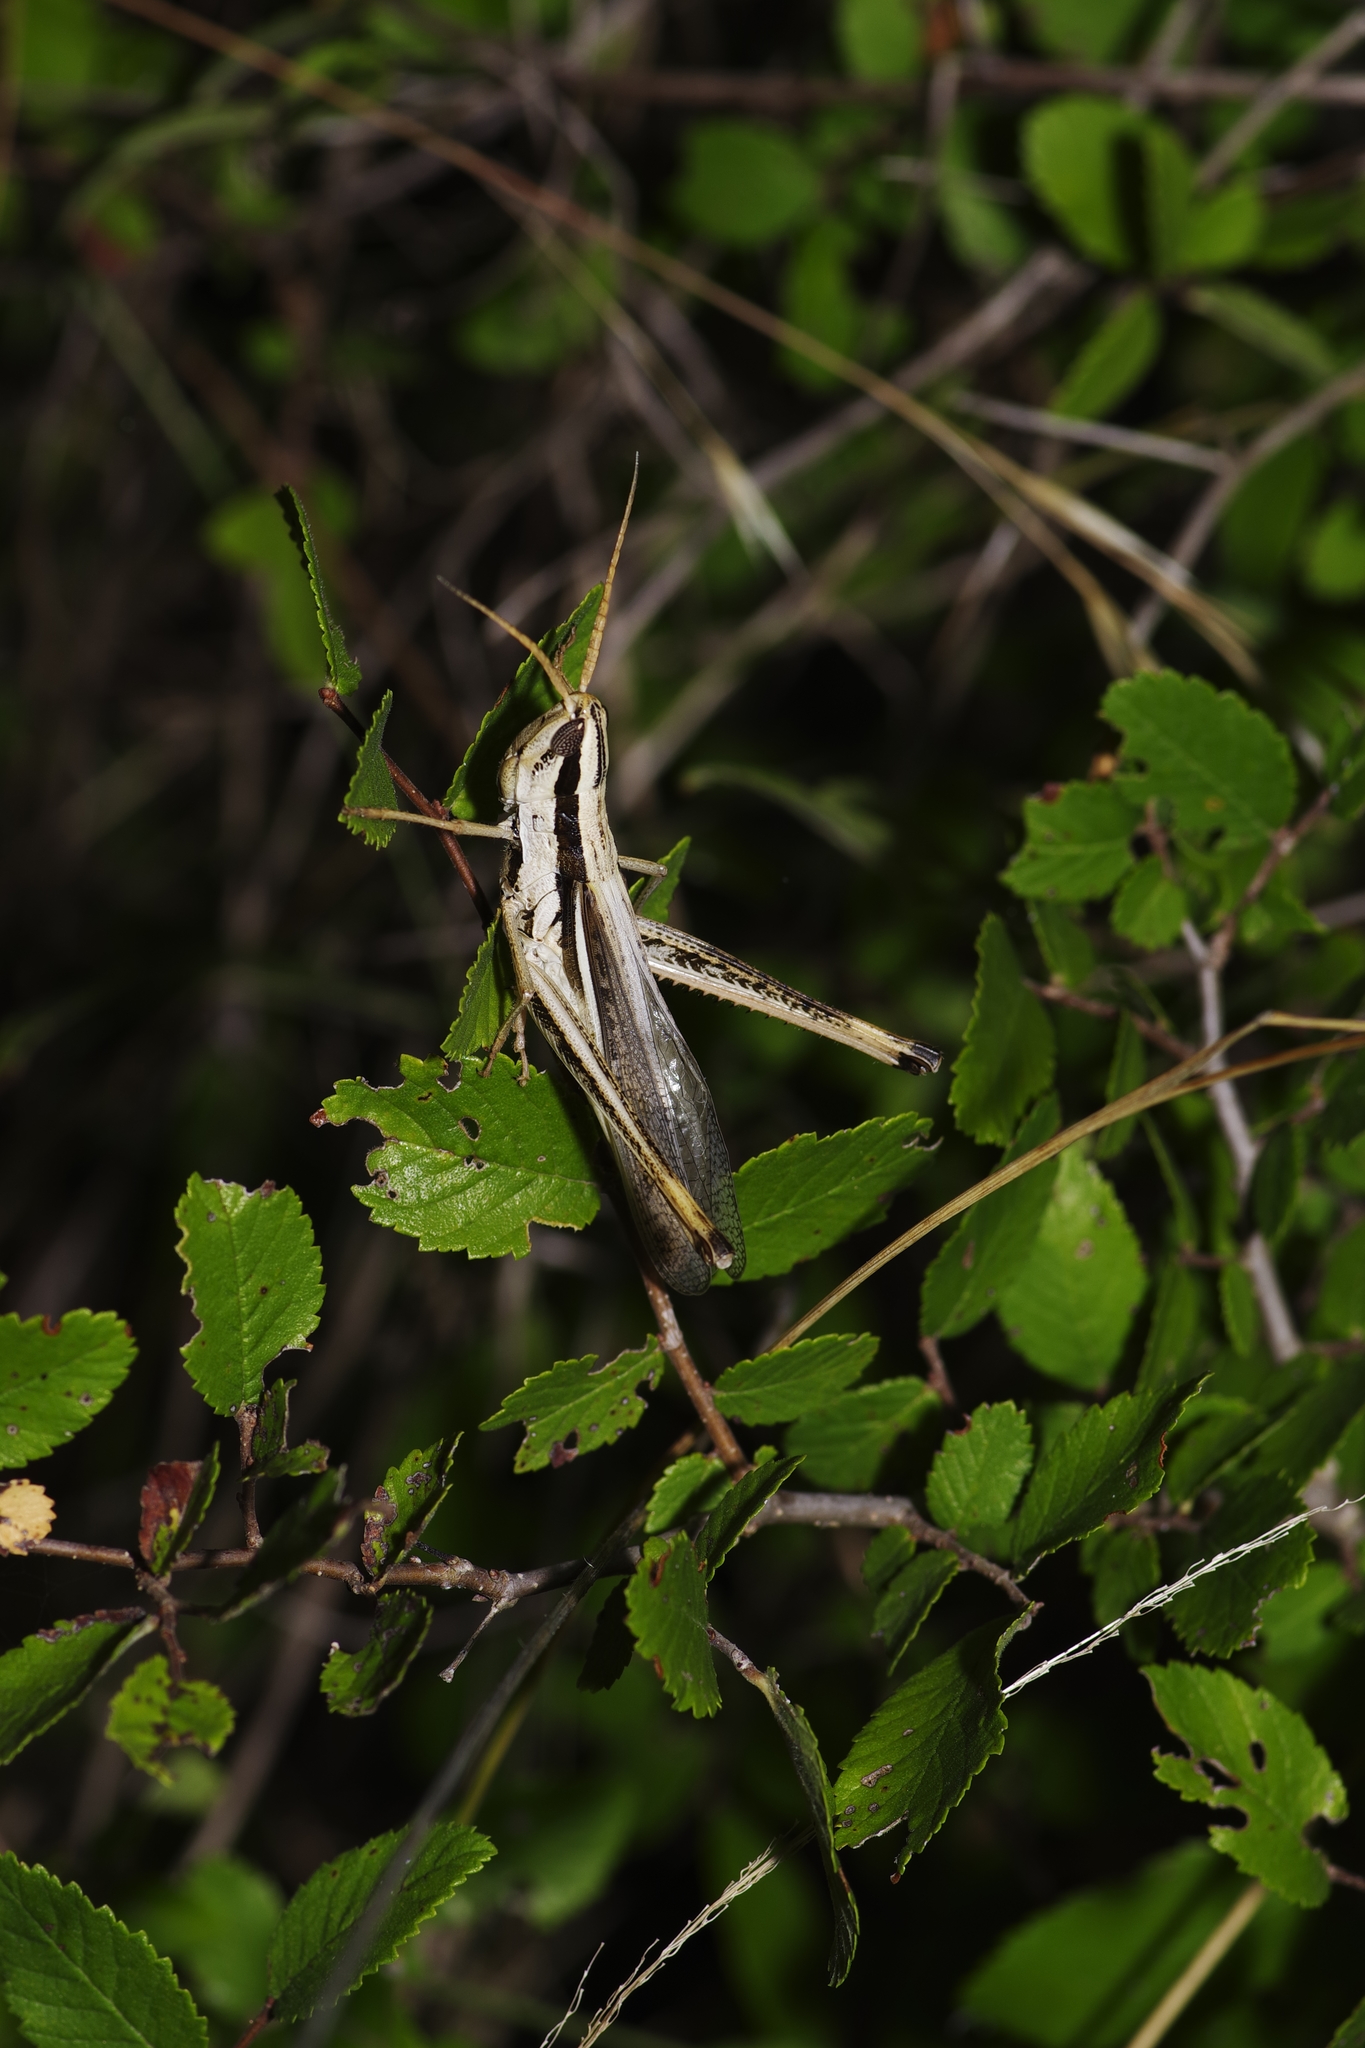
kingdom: Animalia
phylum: Arthropoda
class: Insecta
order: Orthoptera
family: Acrididae
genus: Mermiria
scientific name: Mermiria bivittata
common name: Two-striped mermiria grasshopper
